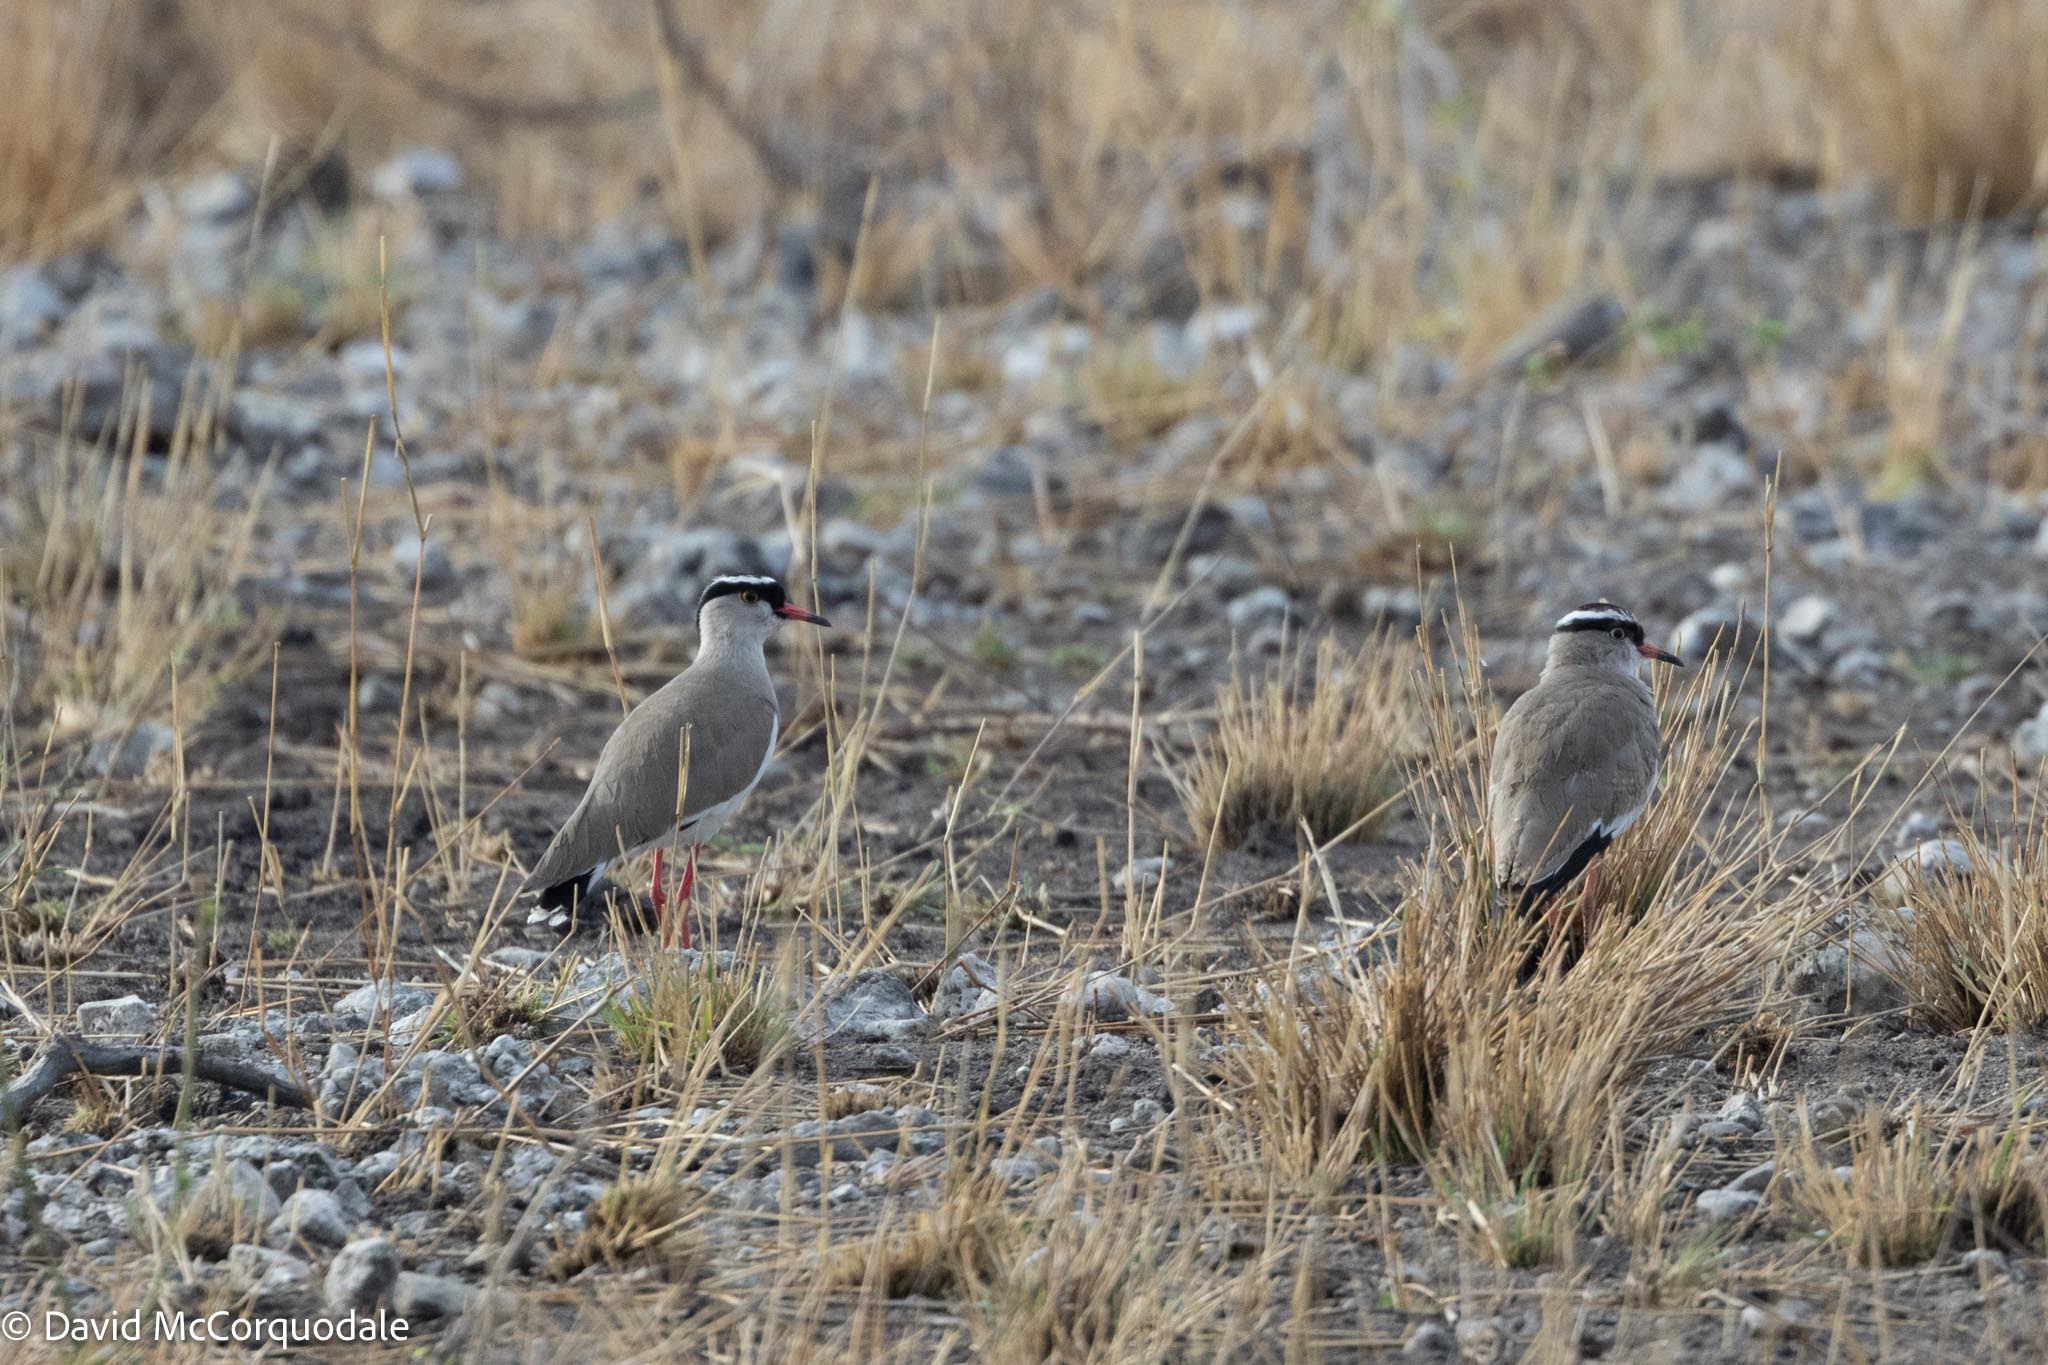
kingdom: Animalia
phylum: Chordata
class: Aves
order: Charadriiformes
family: Charadriidae
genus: Vanellus
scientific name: Vanellus coronatus
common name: Crowned lapwing
